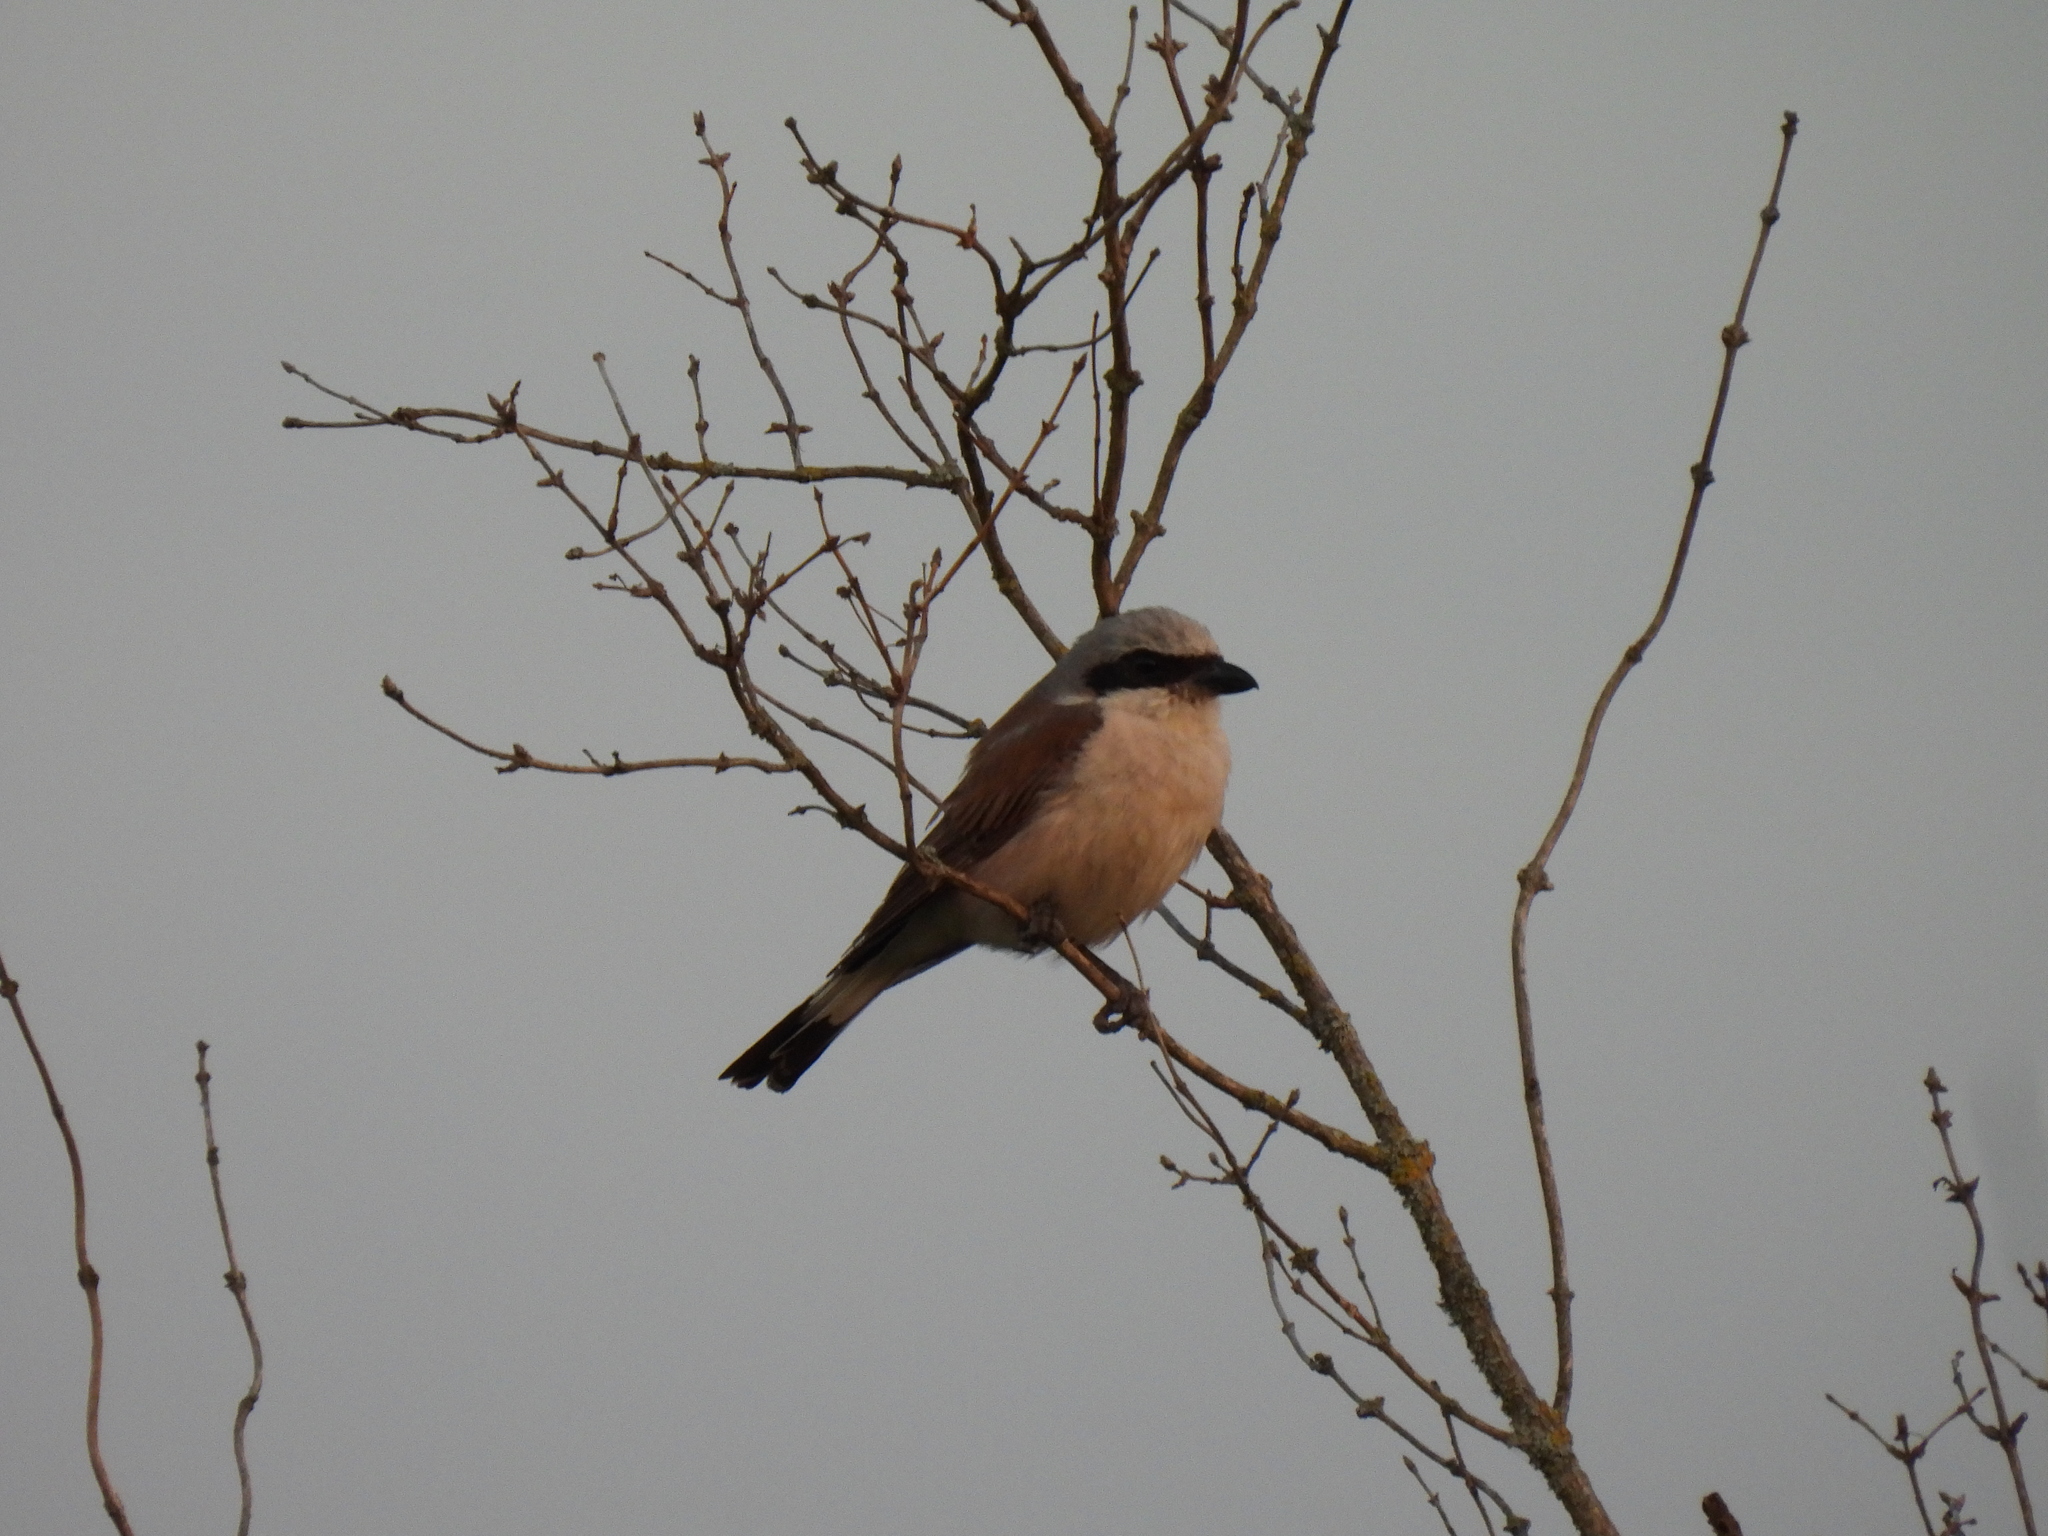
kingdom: Animalia
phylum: Chordata
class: Aves
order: Passeriformes
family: Laniidae
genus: Lanius
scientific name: Lanius collurio
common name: Red-backed shrike
